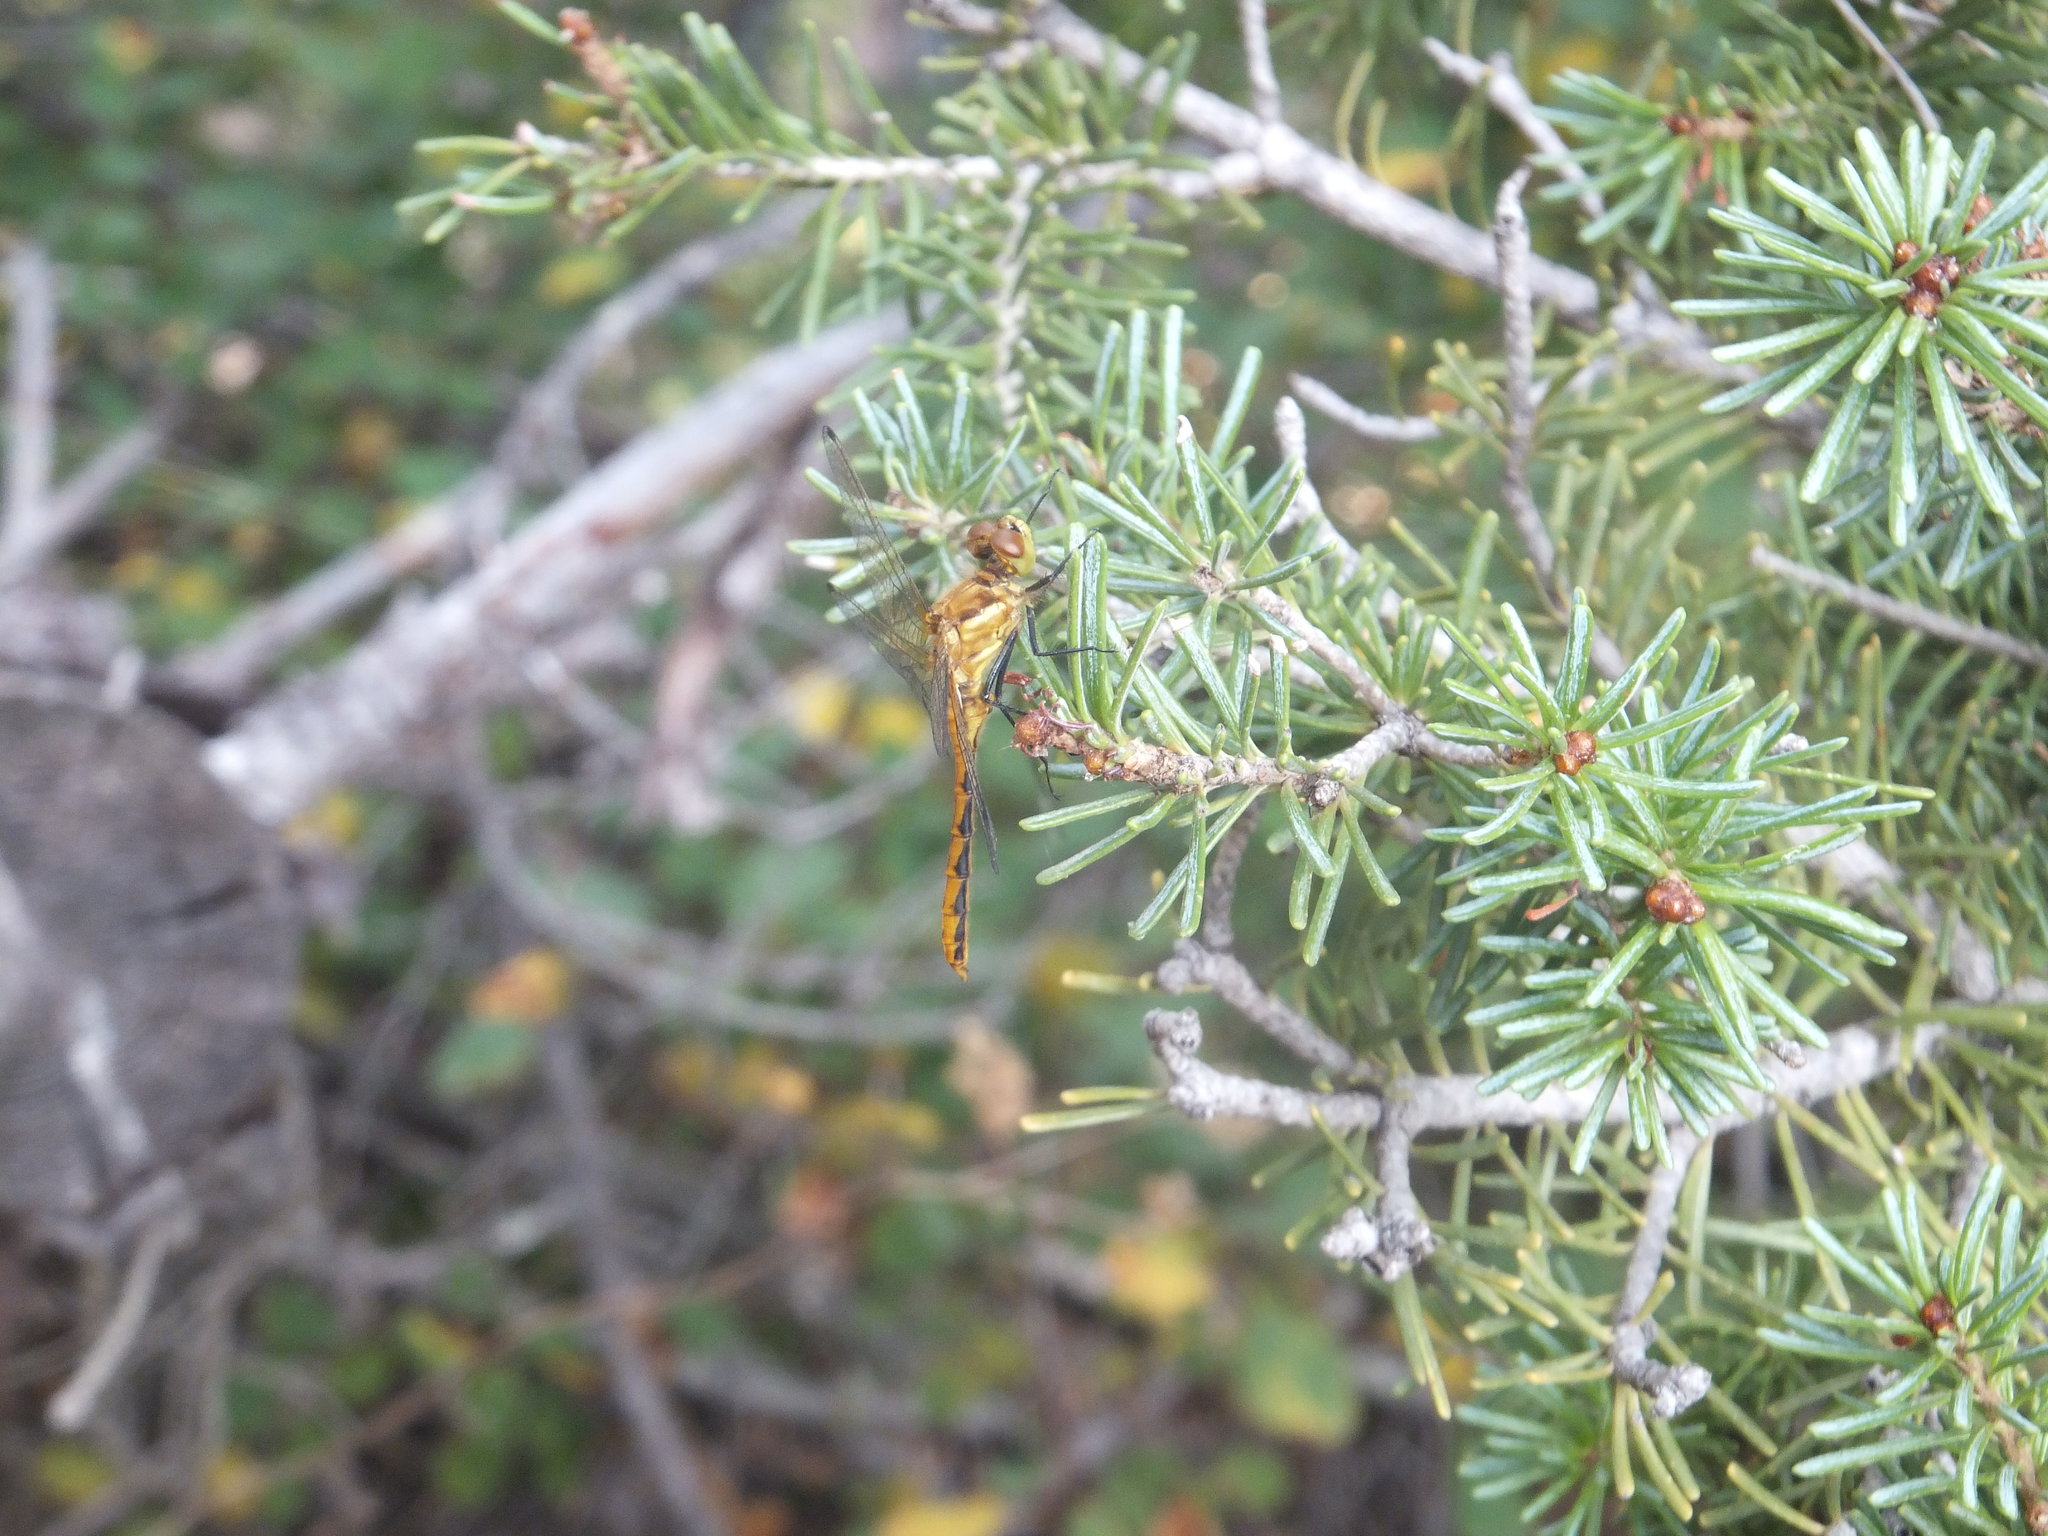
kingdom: Animalia
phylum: Arthropoda
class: Insecta
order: Odonata
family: Libellulidae
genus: Sympetrum
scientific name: Sympetrum pallipes
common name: Striped meadowhawk
